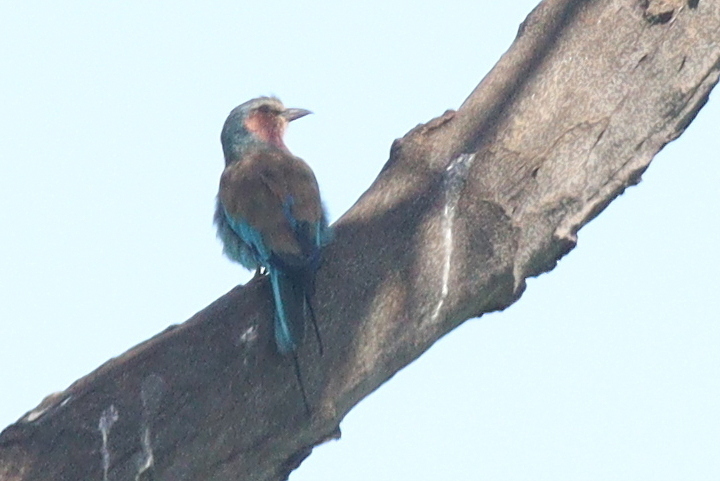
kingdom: Animalia
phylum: Chordata
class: Aves
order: Coraciiformes
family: Coraciidae
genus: Coracias
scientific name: Coracias caudatus
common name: Lilac-breasted roller
